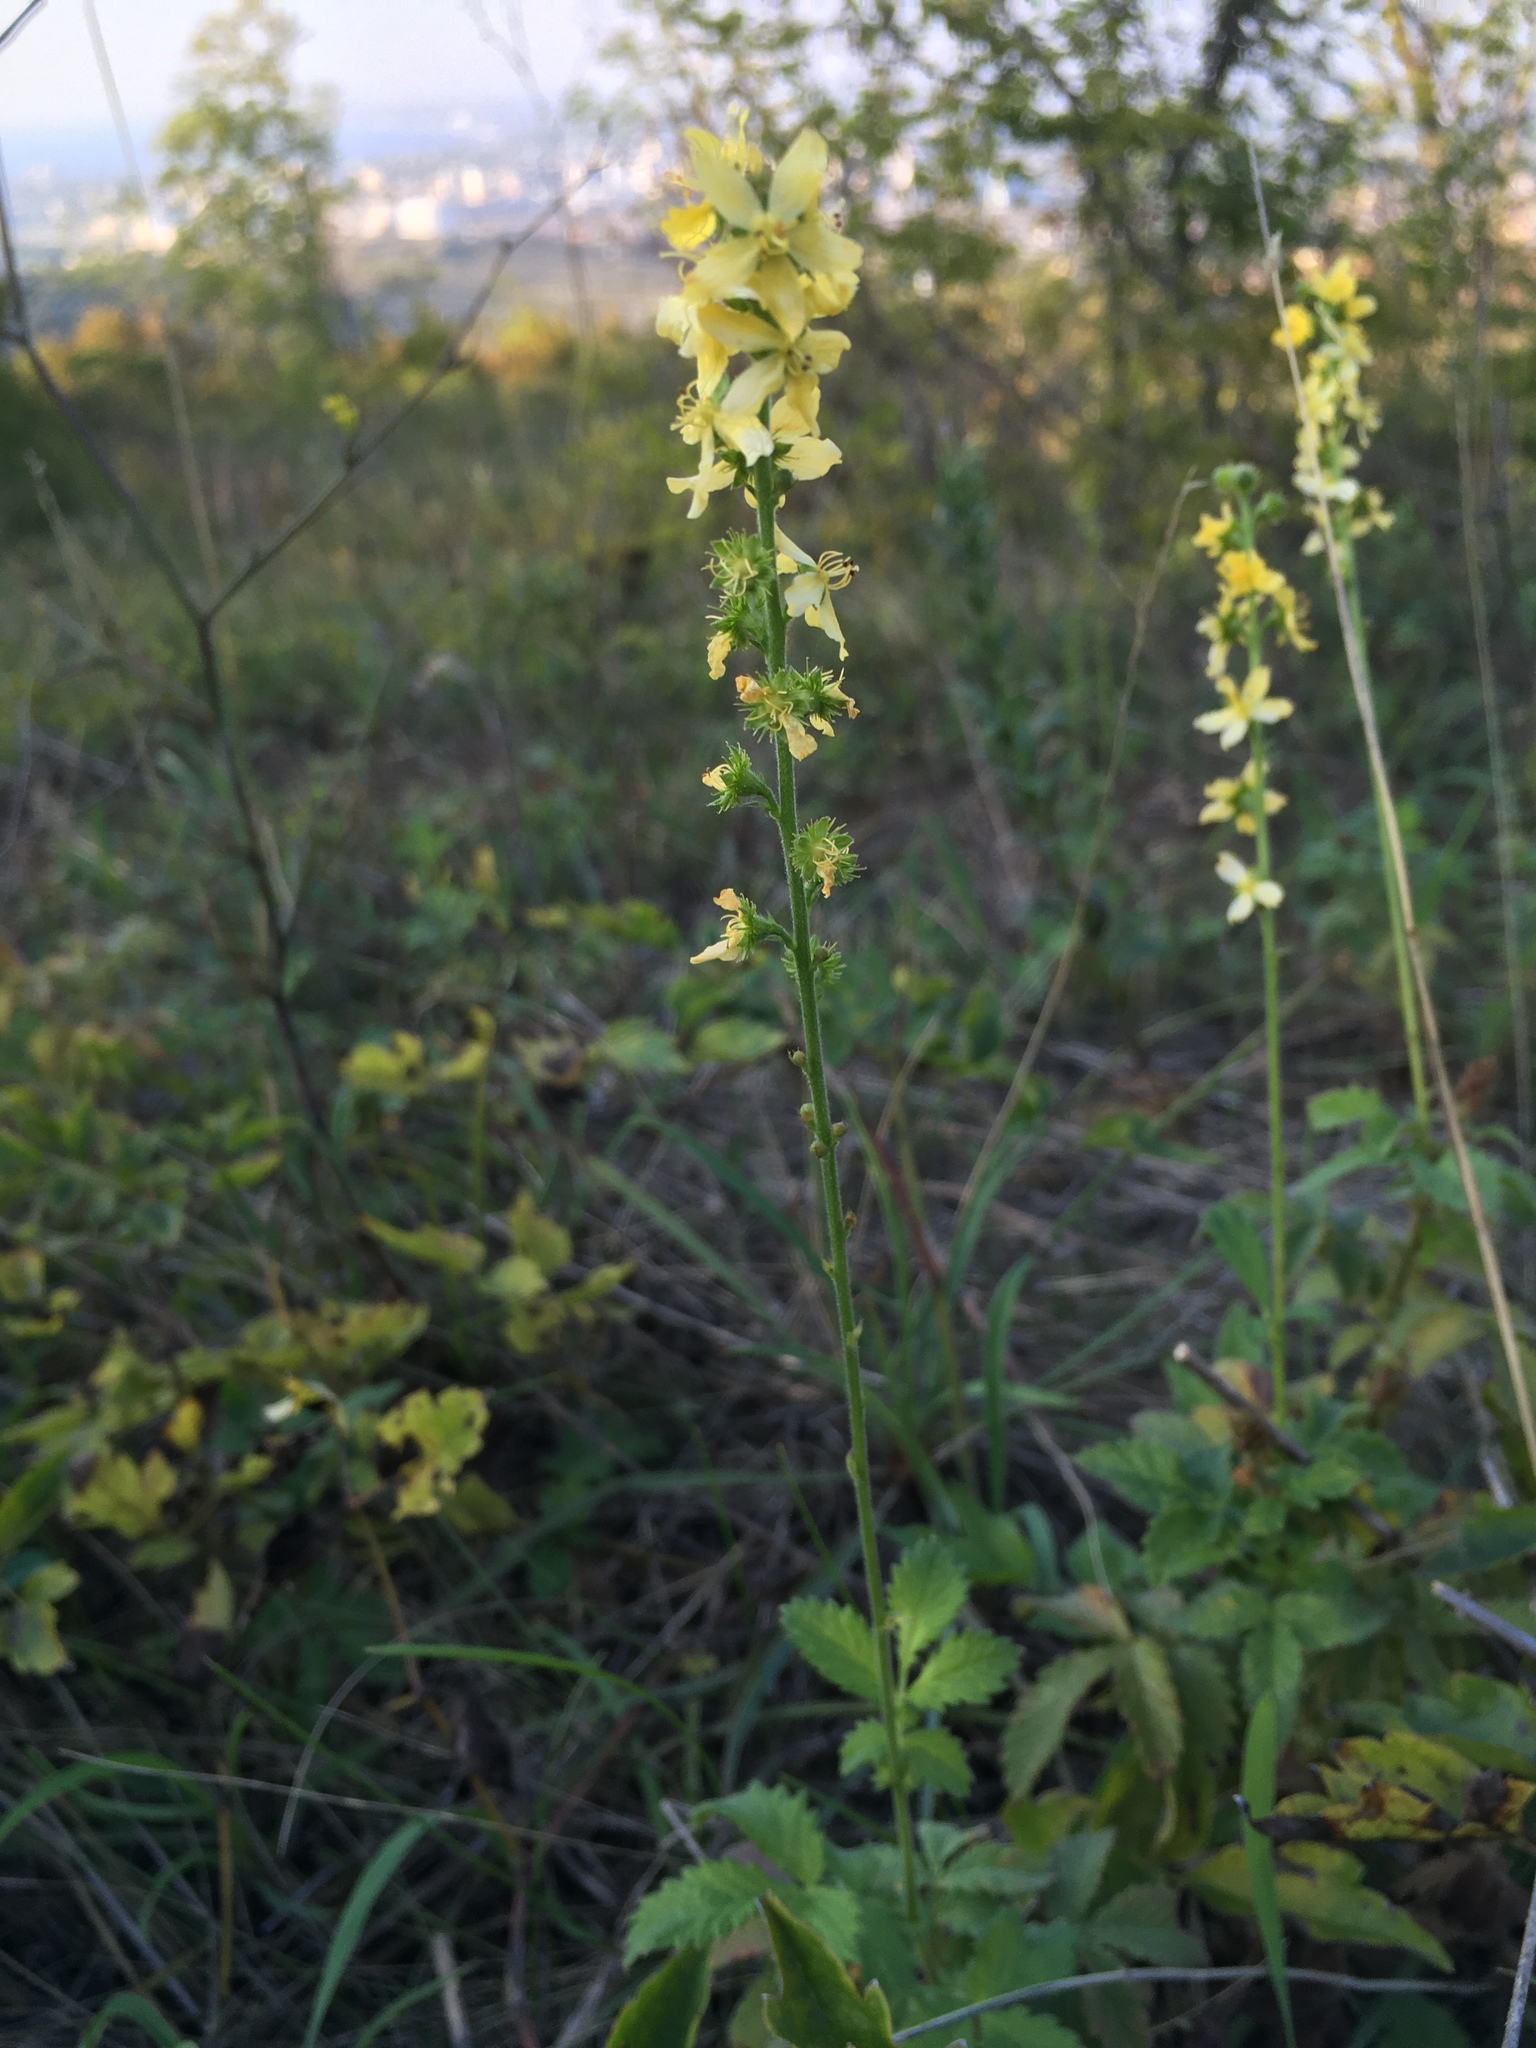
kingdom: Plantae
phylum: Tracheophyta
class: Magnoliopsida
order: Rosales
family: Rosaceae
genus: Agrimonia
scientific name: Agrimonia eupatoria
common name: Agrimony
